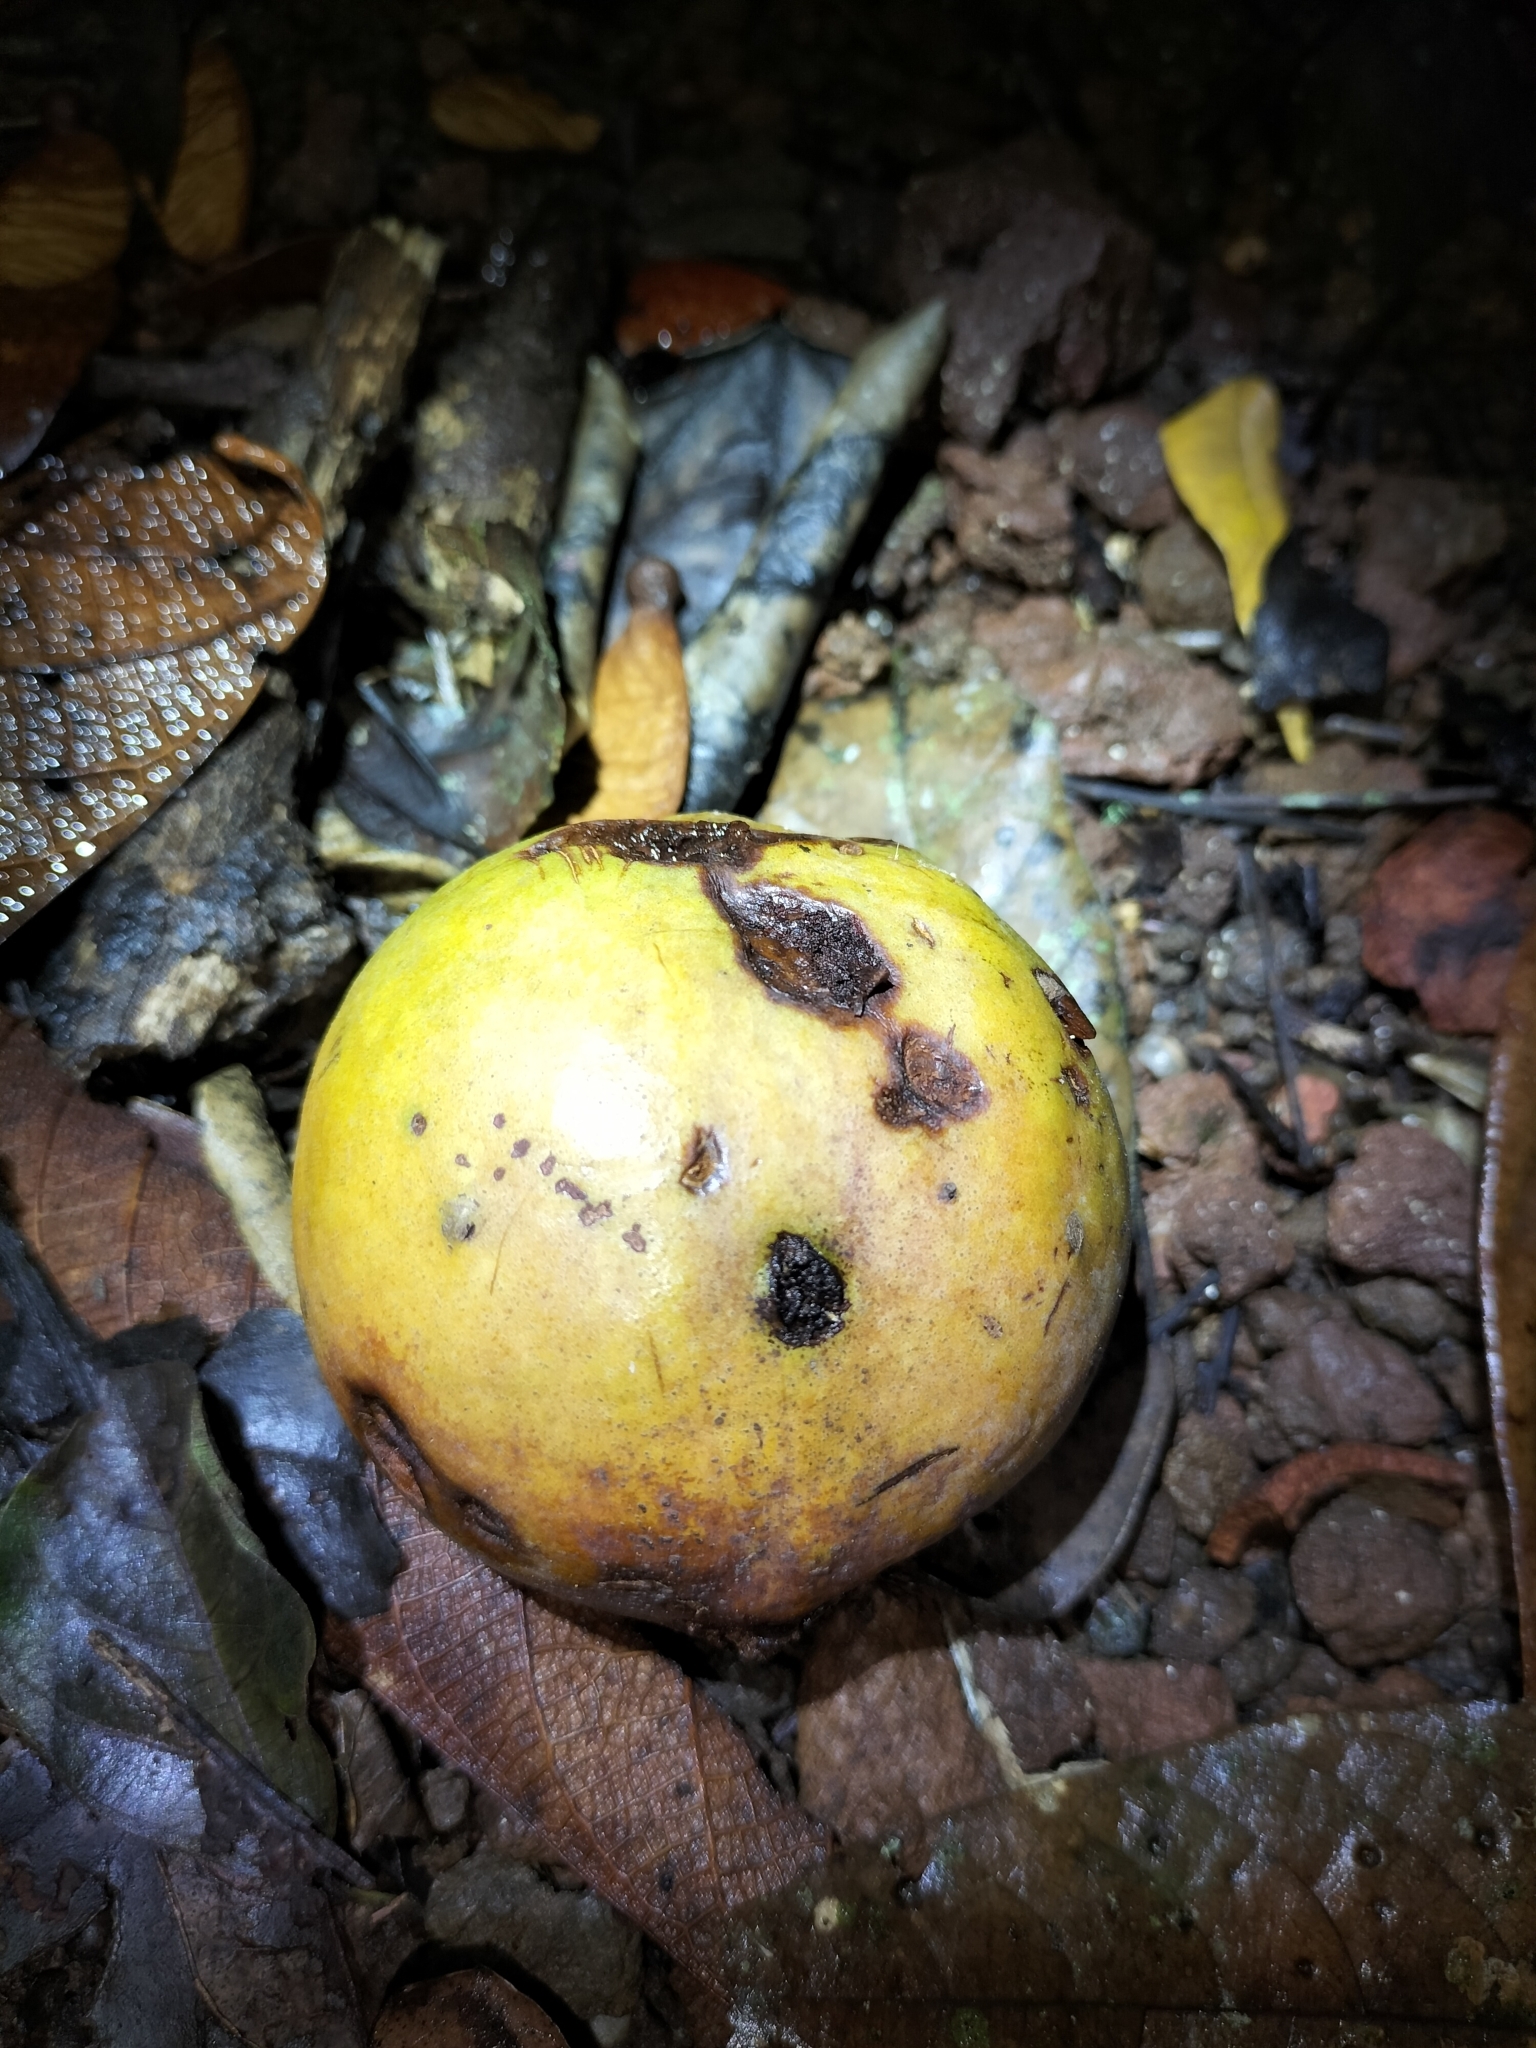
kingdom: Plantae
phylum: Tracheophyta
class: Magnoliopsida
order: Laurales
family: Lauraceae
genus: Endiandra
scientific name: Endiandra insignis
